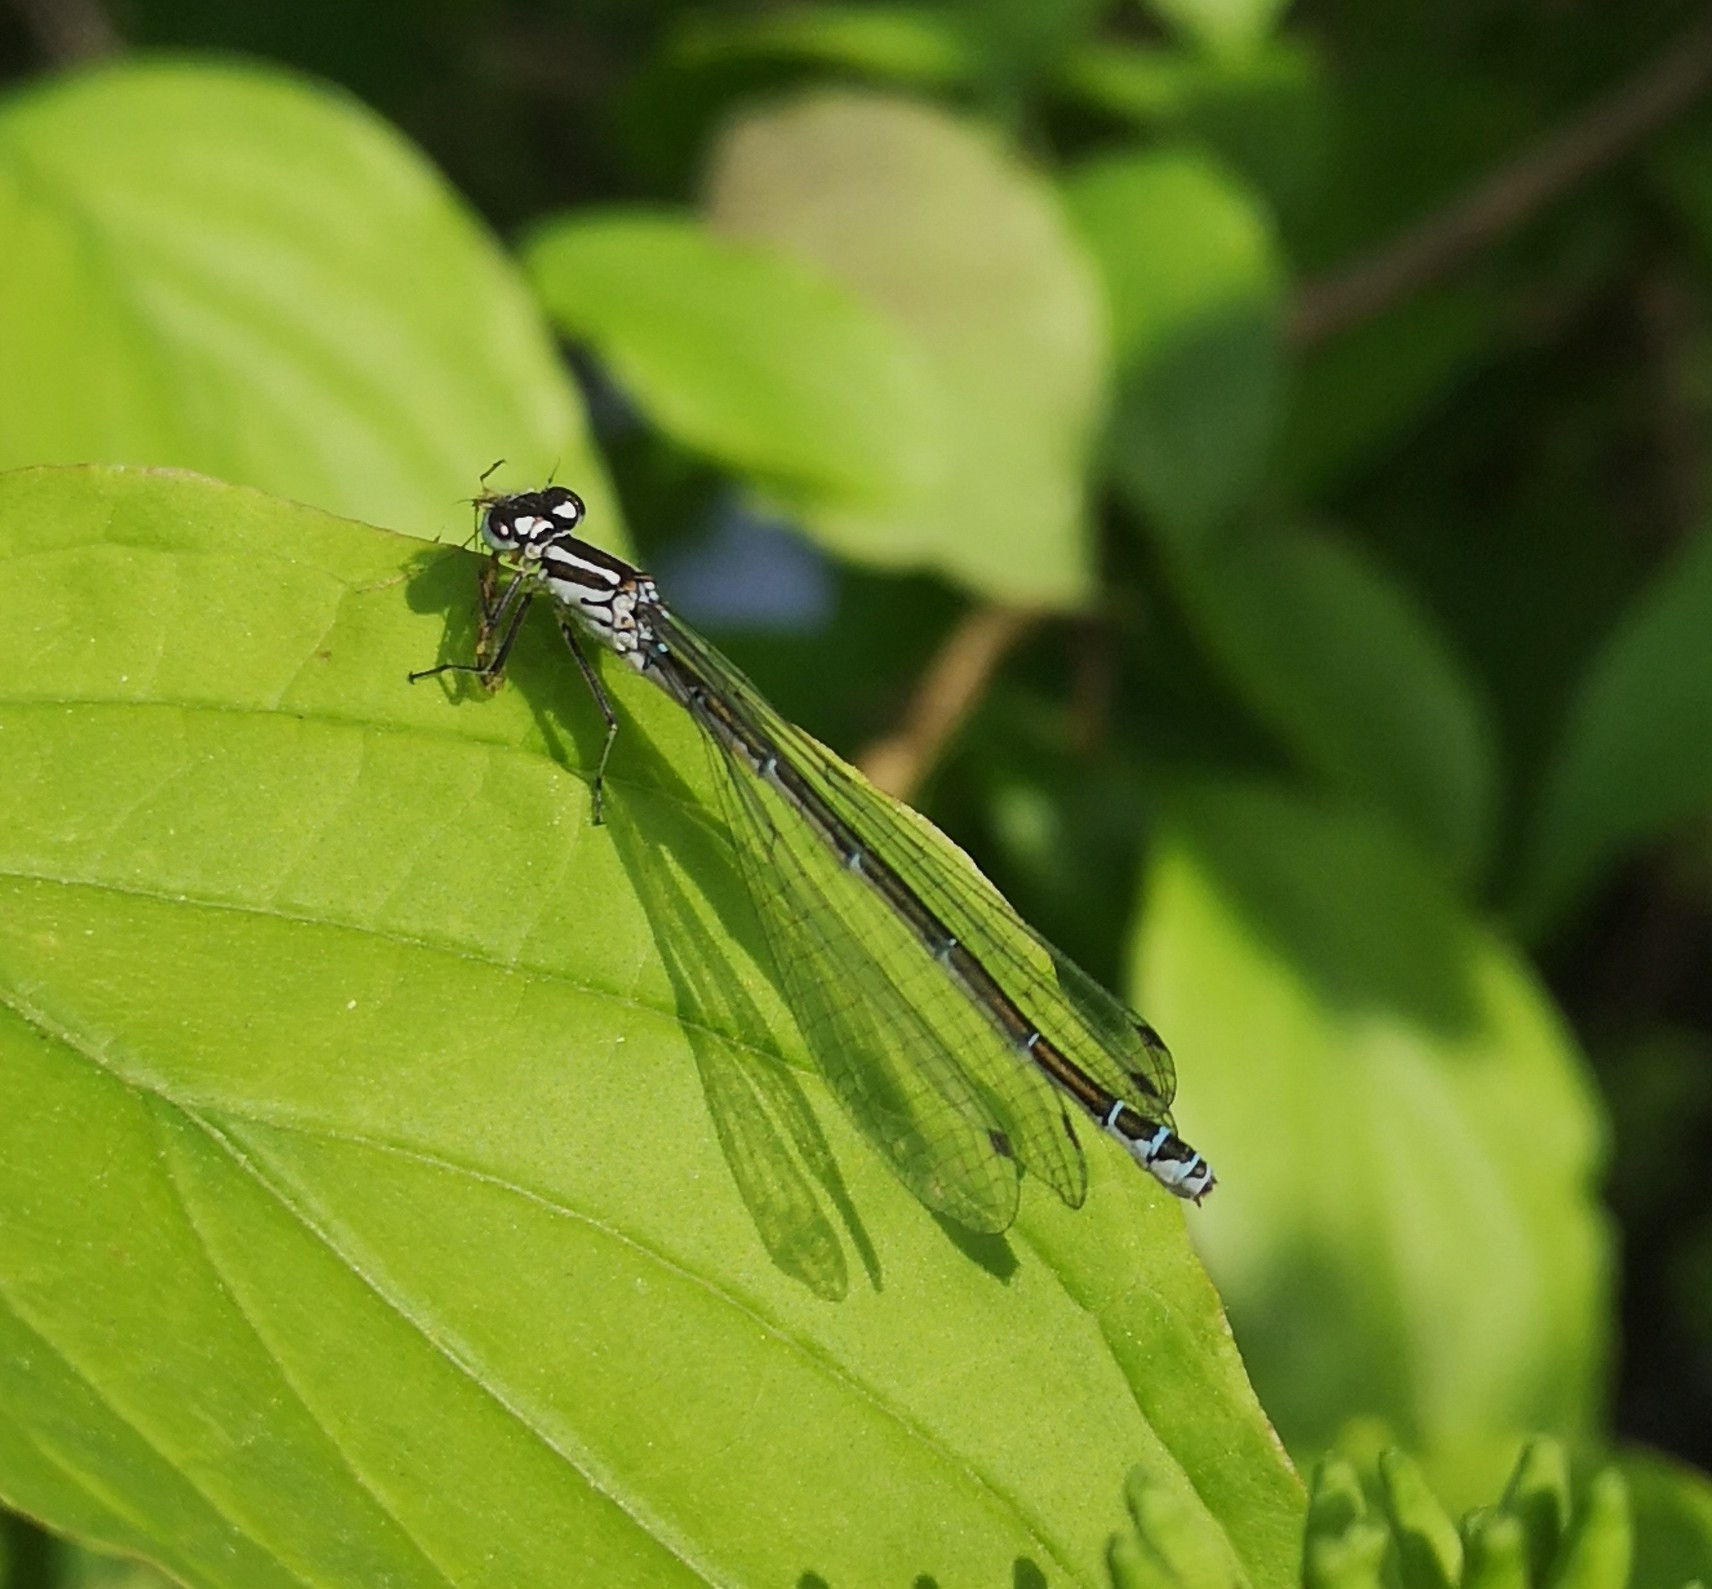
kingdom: Animalia
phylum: Arthropoda
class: Insecta
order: Odonata
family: Coenagrionidae
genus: Coenagrion
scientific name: Coenagrion puella
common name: Azure damselfly
